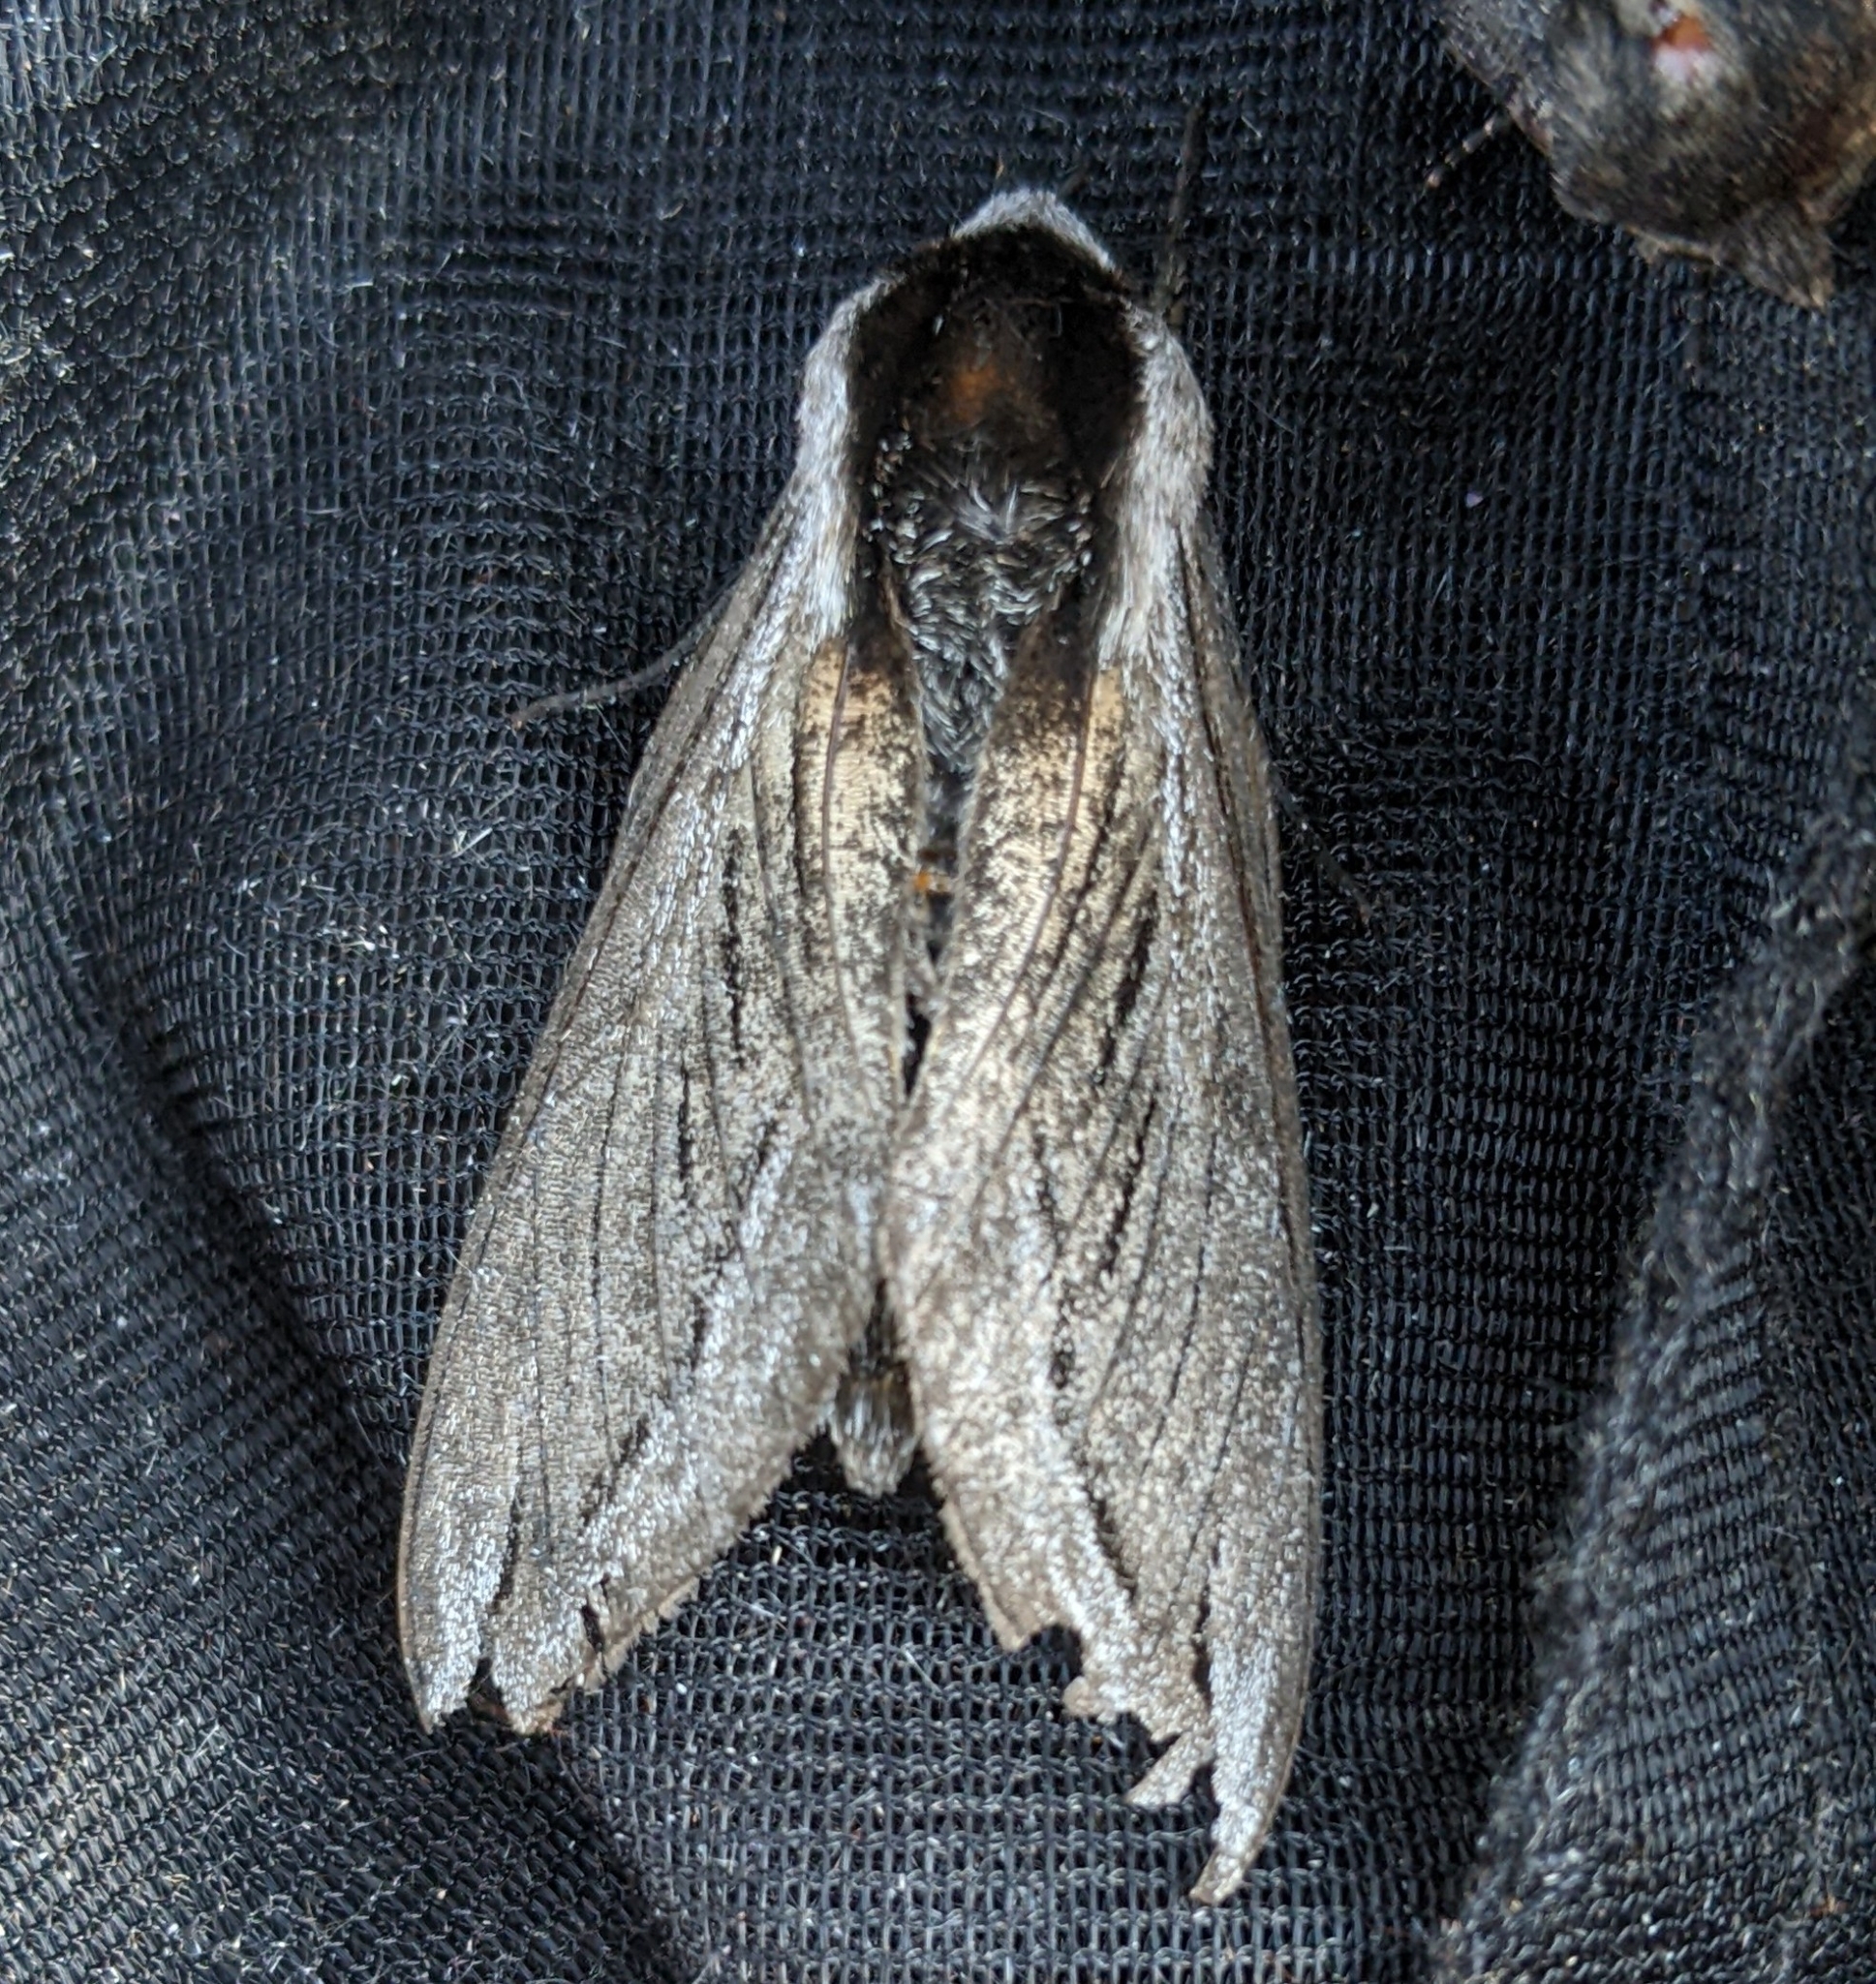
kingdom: Animalia
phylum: Arthropoda
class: Insecta
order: Lepidoptera
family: Sphingidae
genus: Sphinx
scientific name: Sphinx vashti
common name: Snowberry sphinx
